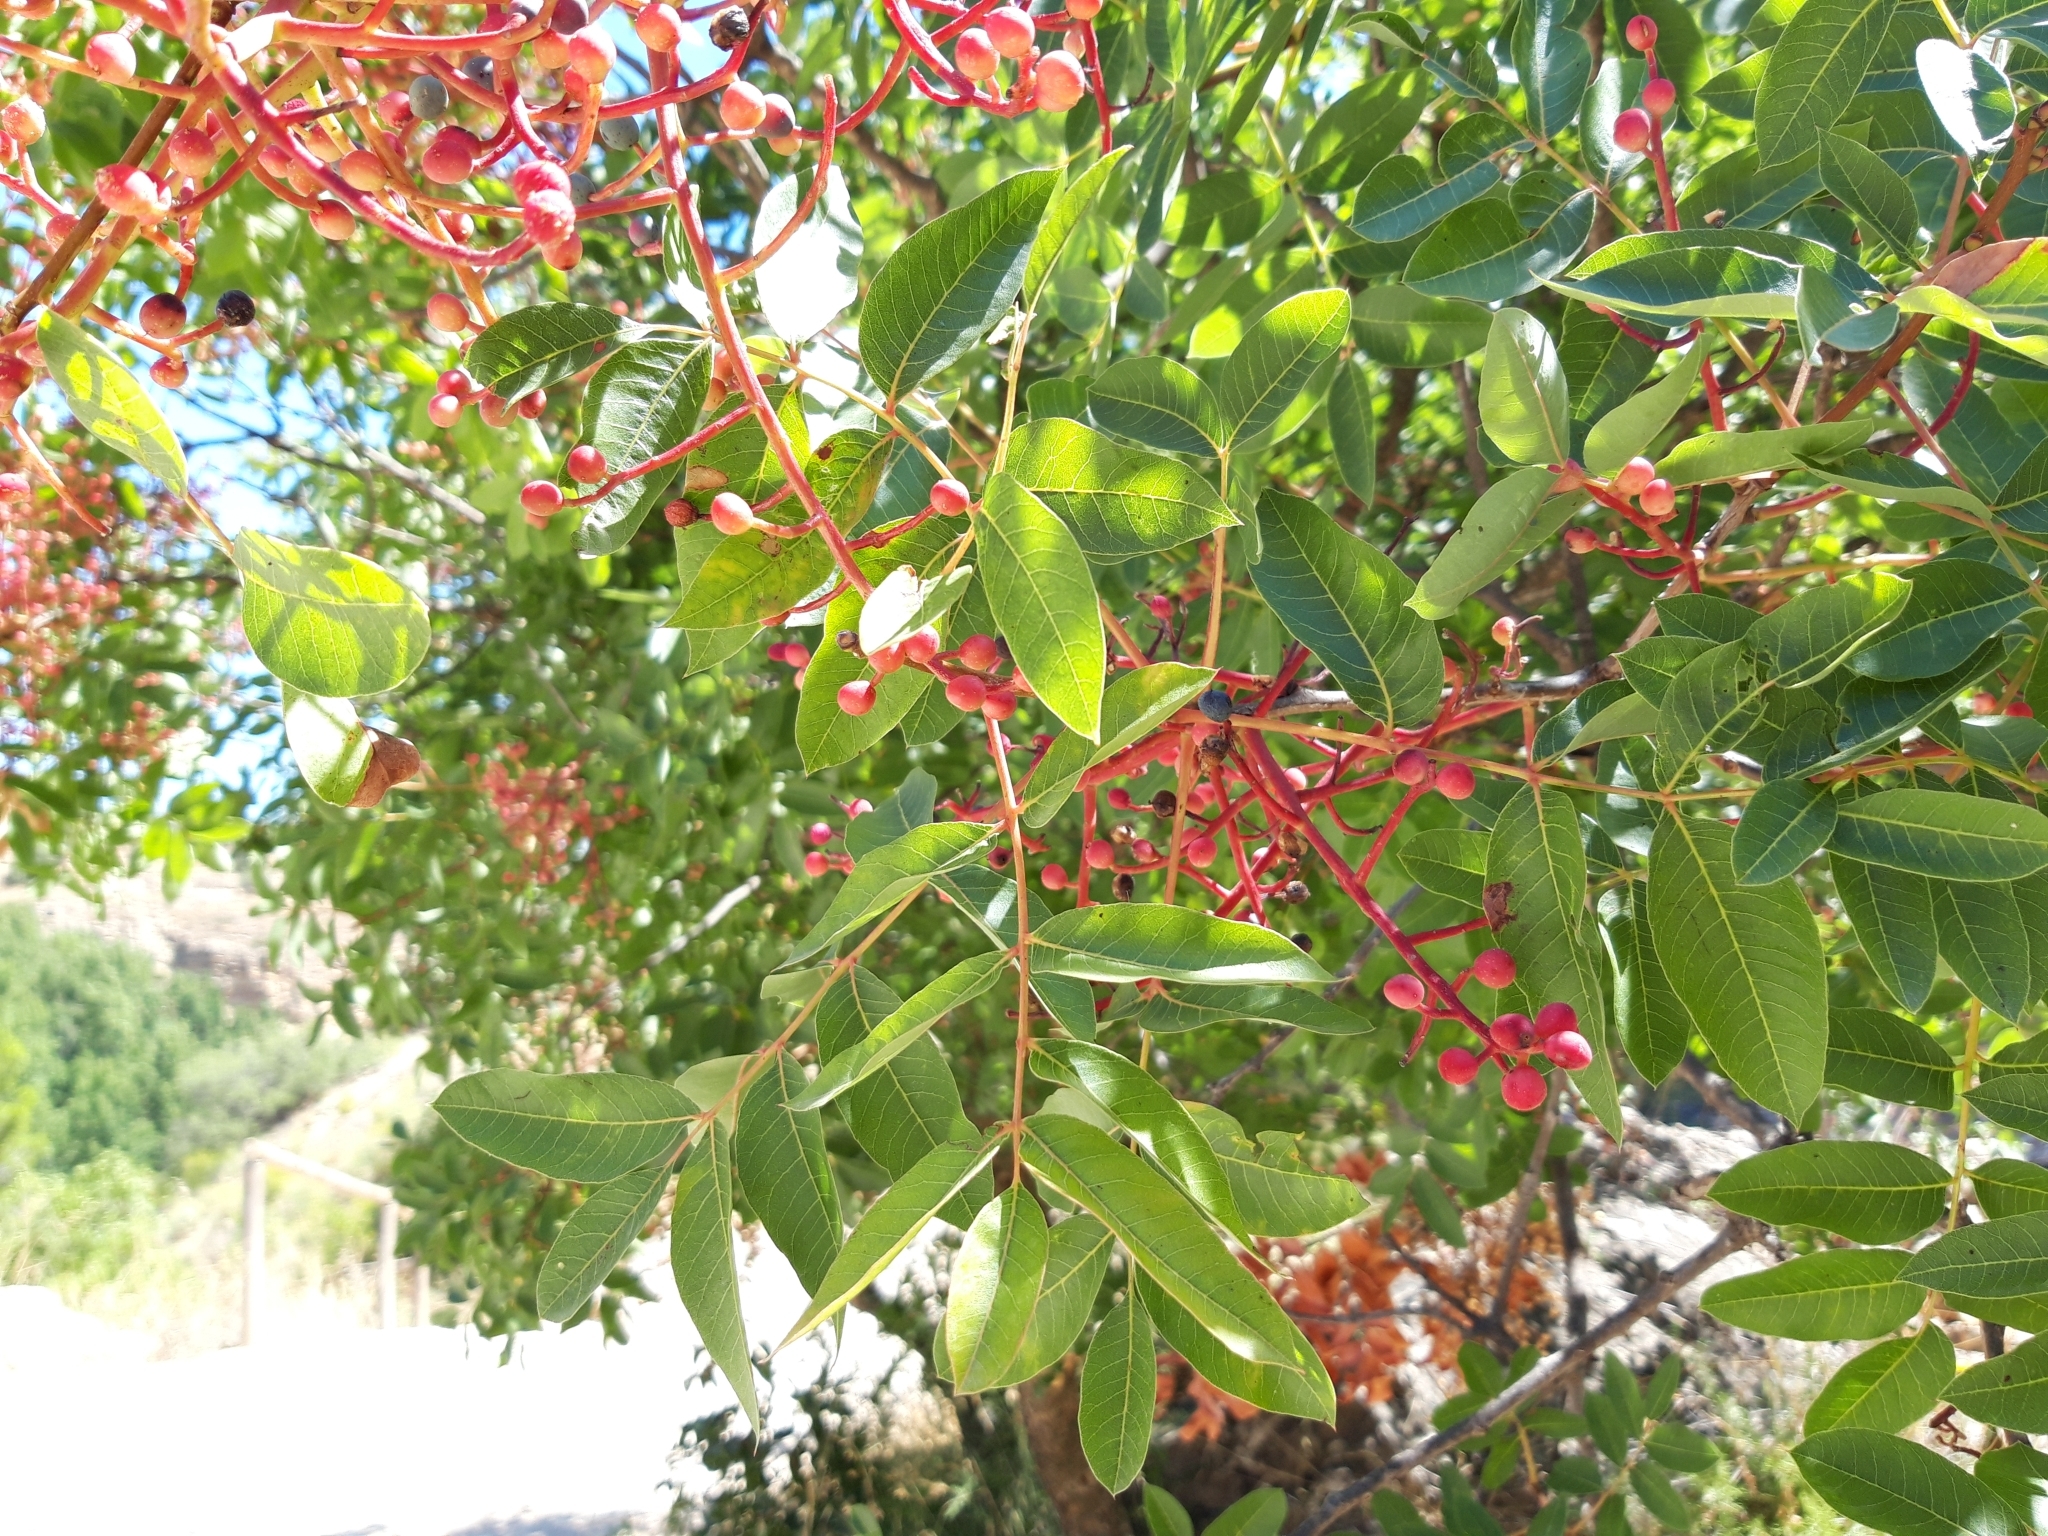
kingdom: Plantae
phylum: Tracheophyta
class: Magnoliopsida
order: Sapindales
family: Anacardiaceae
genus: Pistacia
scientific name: Pistacia terebinthus
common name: Terebinth
